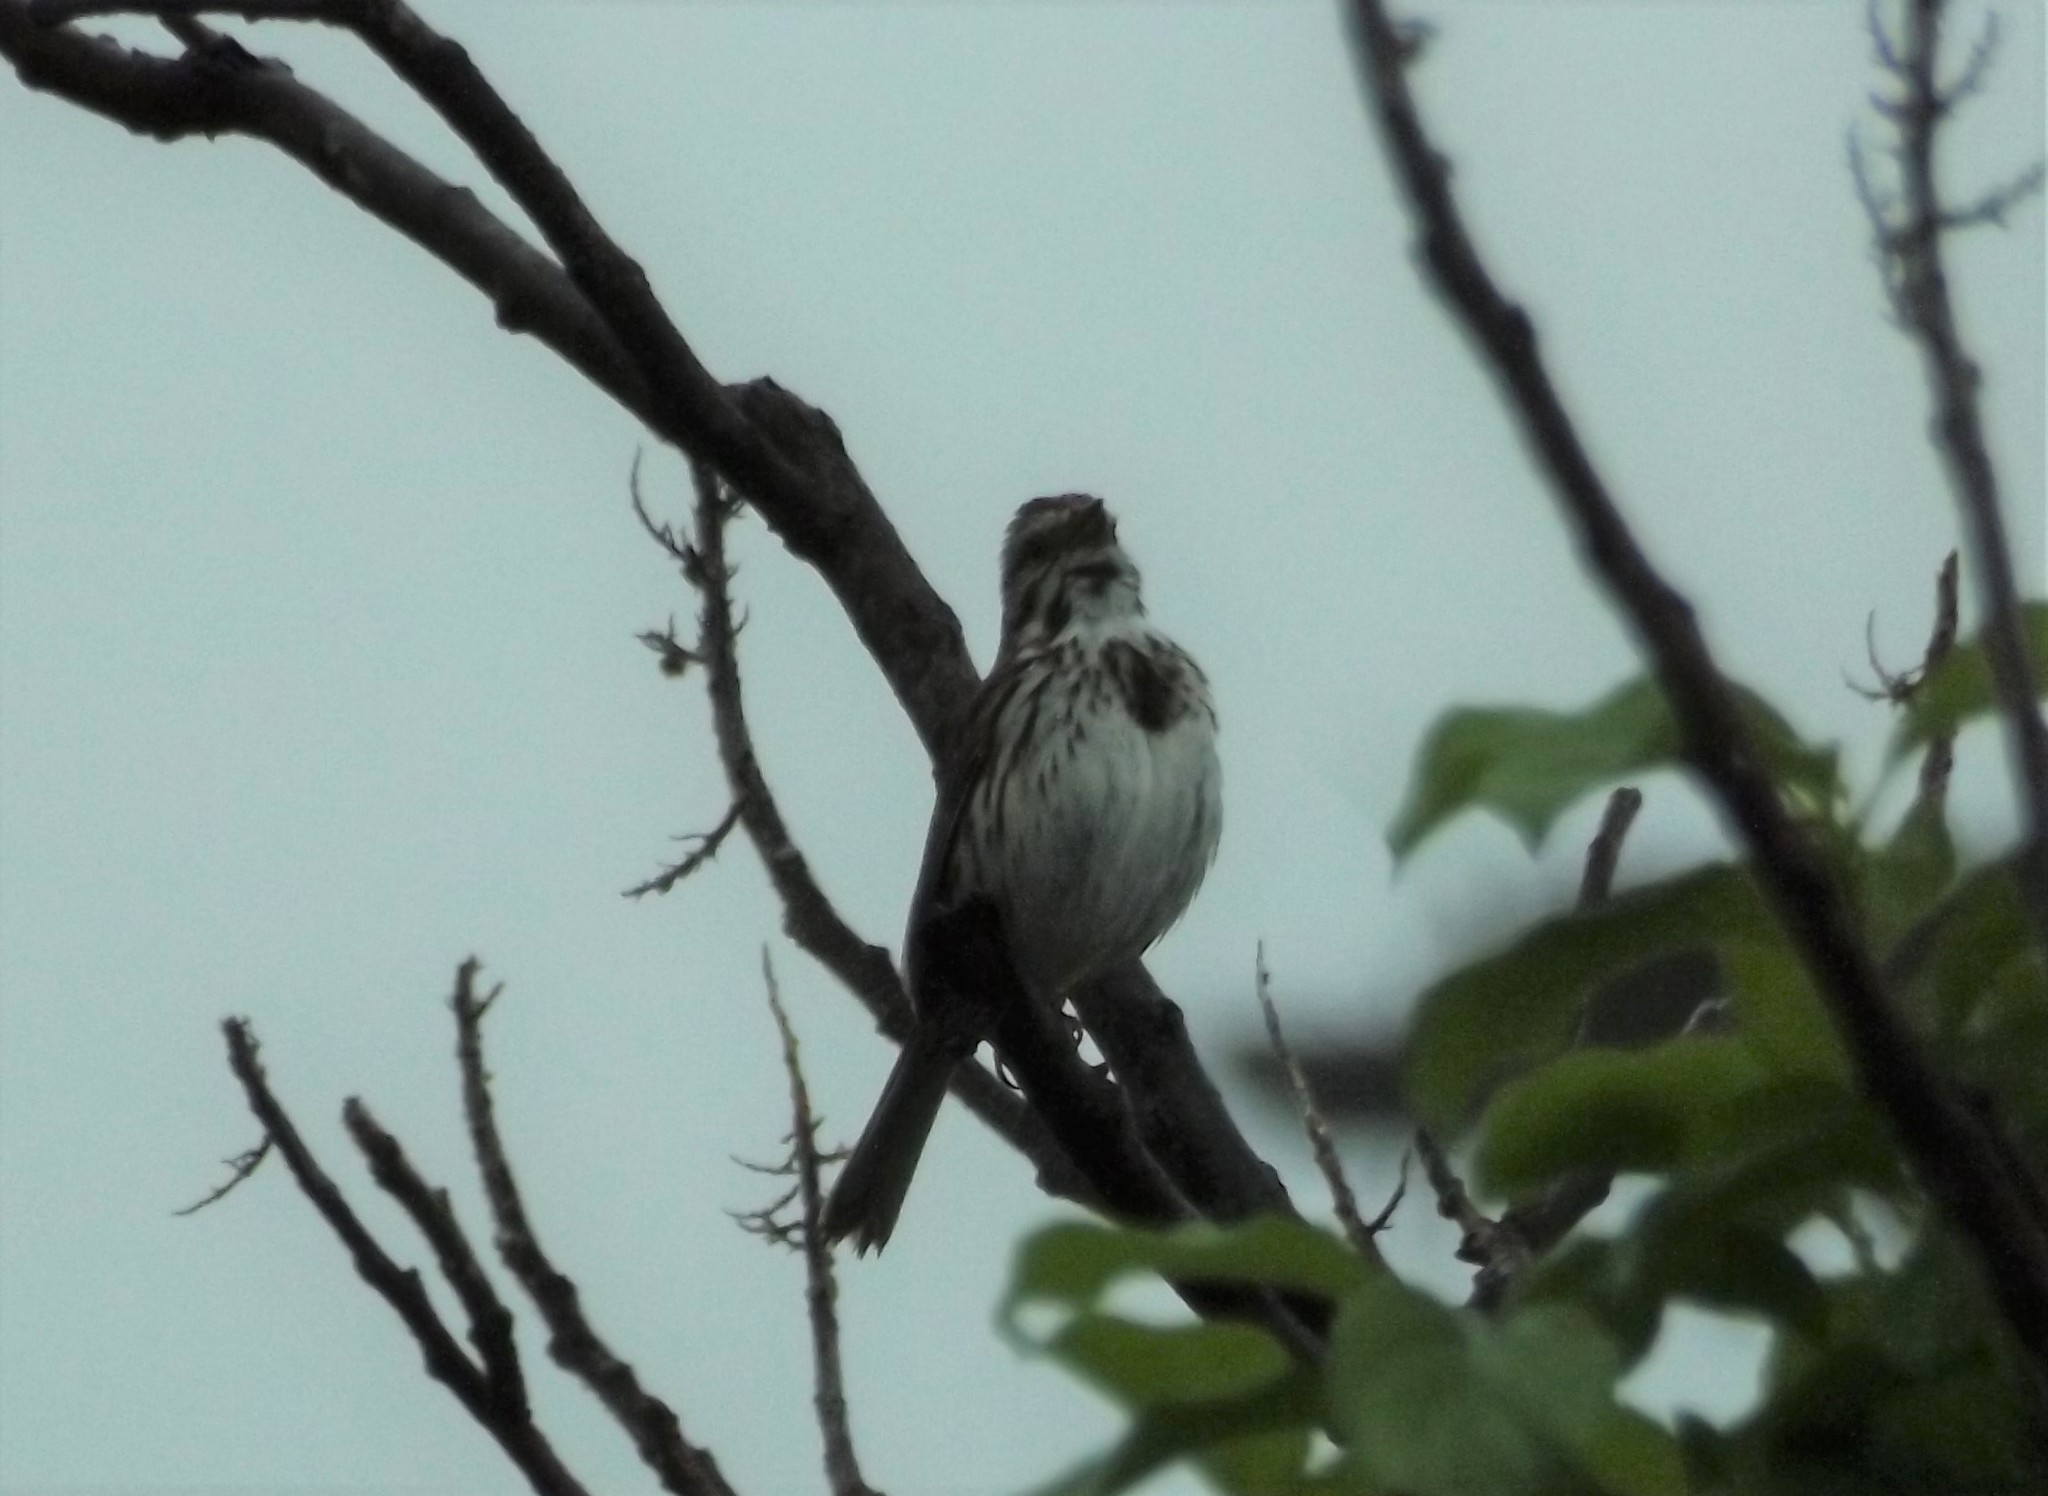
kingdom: Animalia
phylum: Chordata
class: Aves
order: Passeriformes
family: Passerellidae
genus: Melospiza
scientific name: Melospiza melodia
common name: Song sparrow
